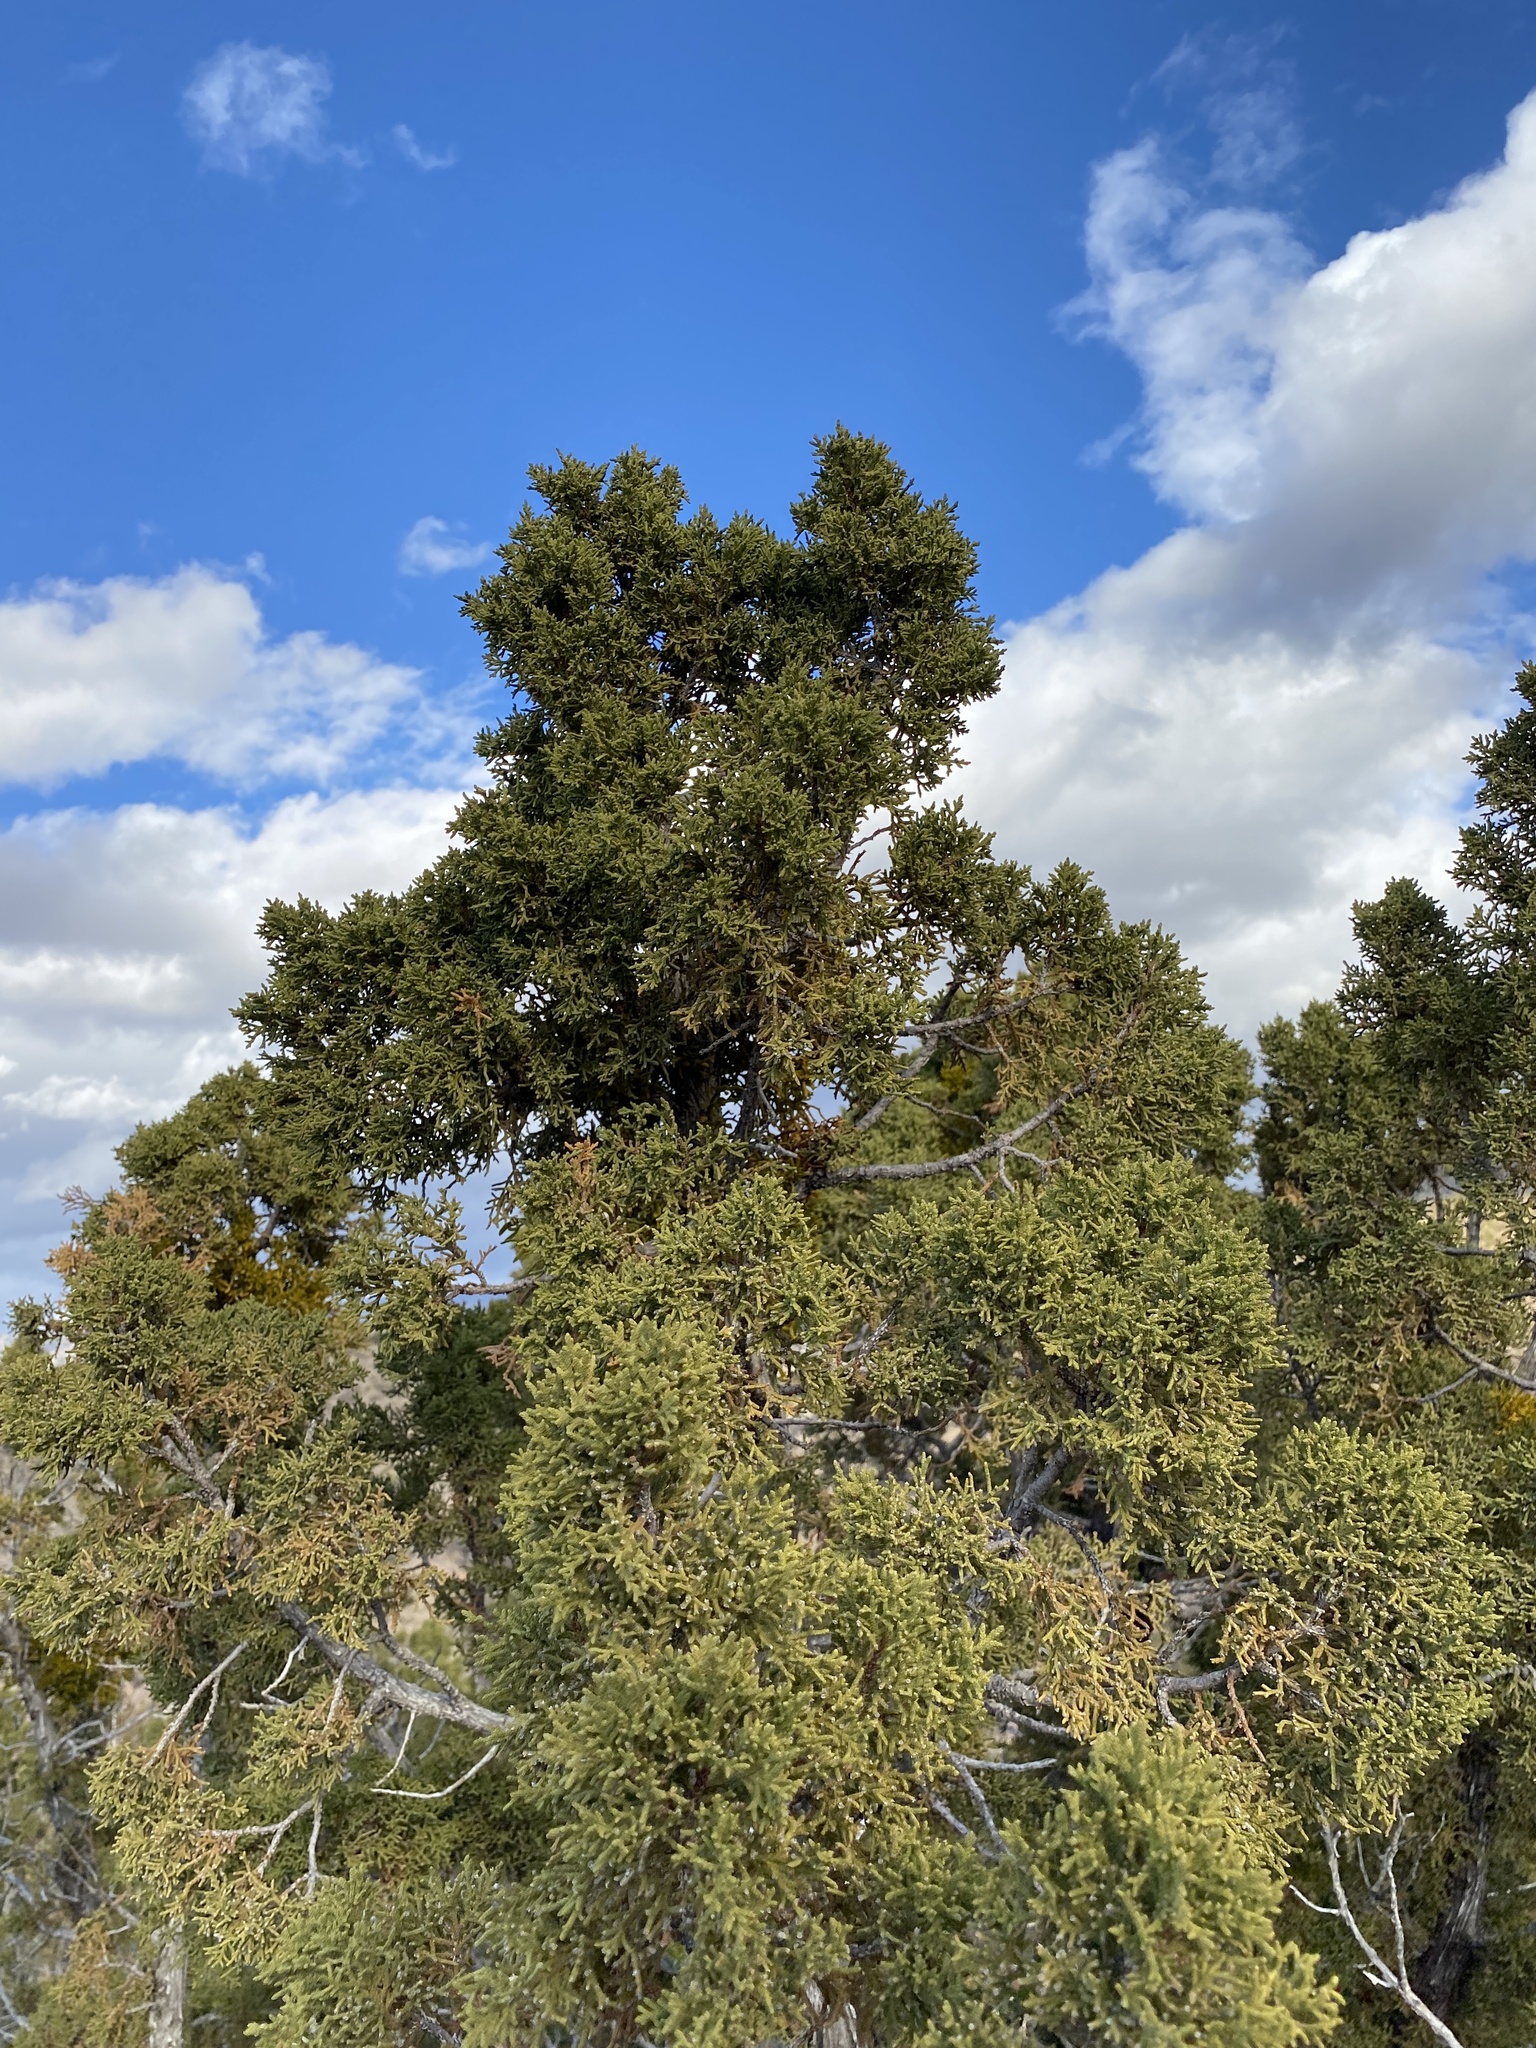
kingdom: Plantae
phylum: Tracheophyta
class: Pinopsida
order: Pinales
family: Cupressaceae
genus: Juniperus
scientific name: Juniperus monosperma
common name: One-seed juniper
